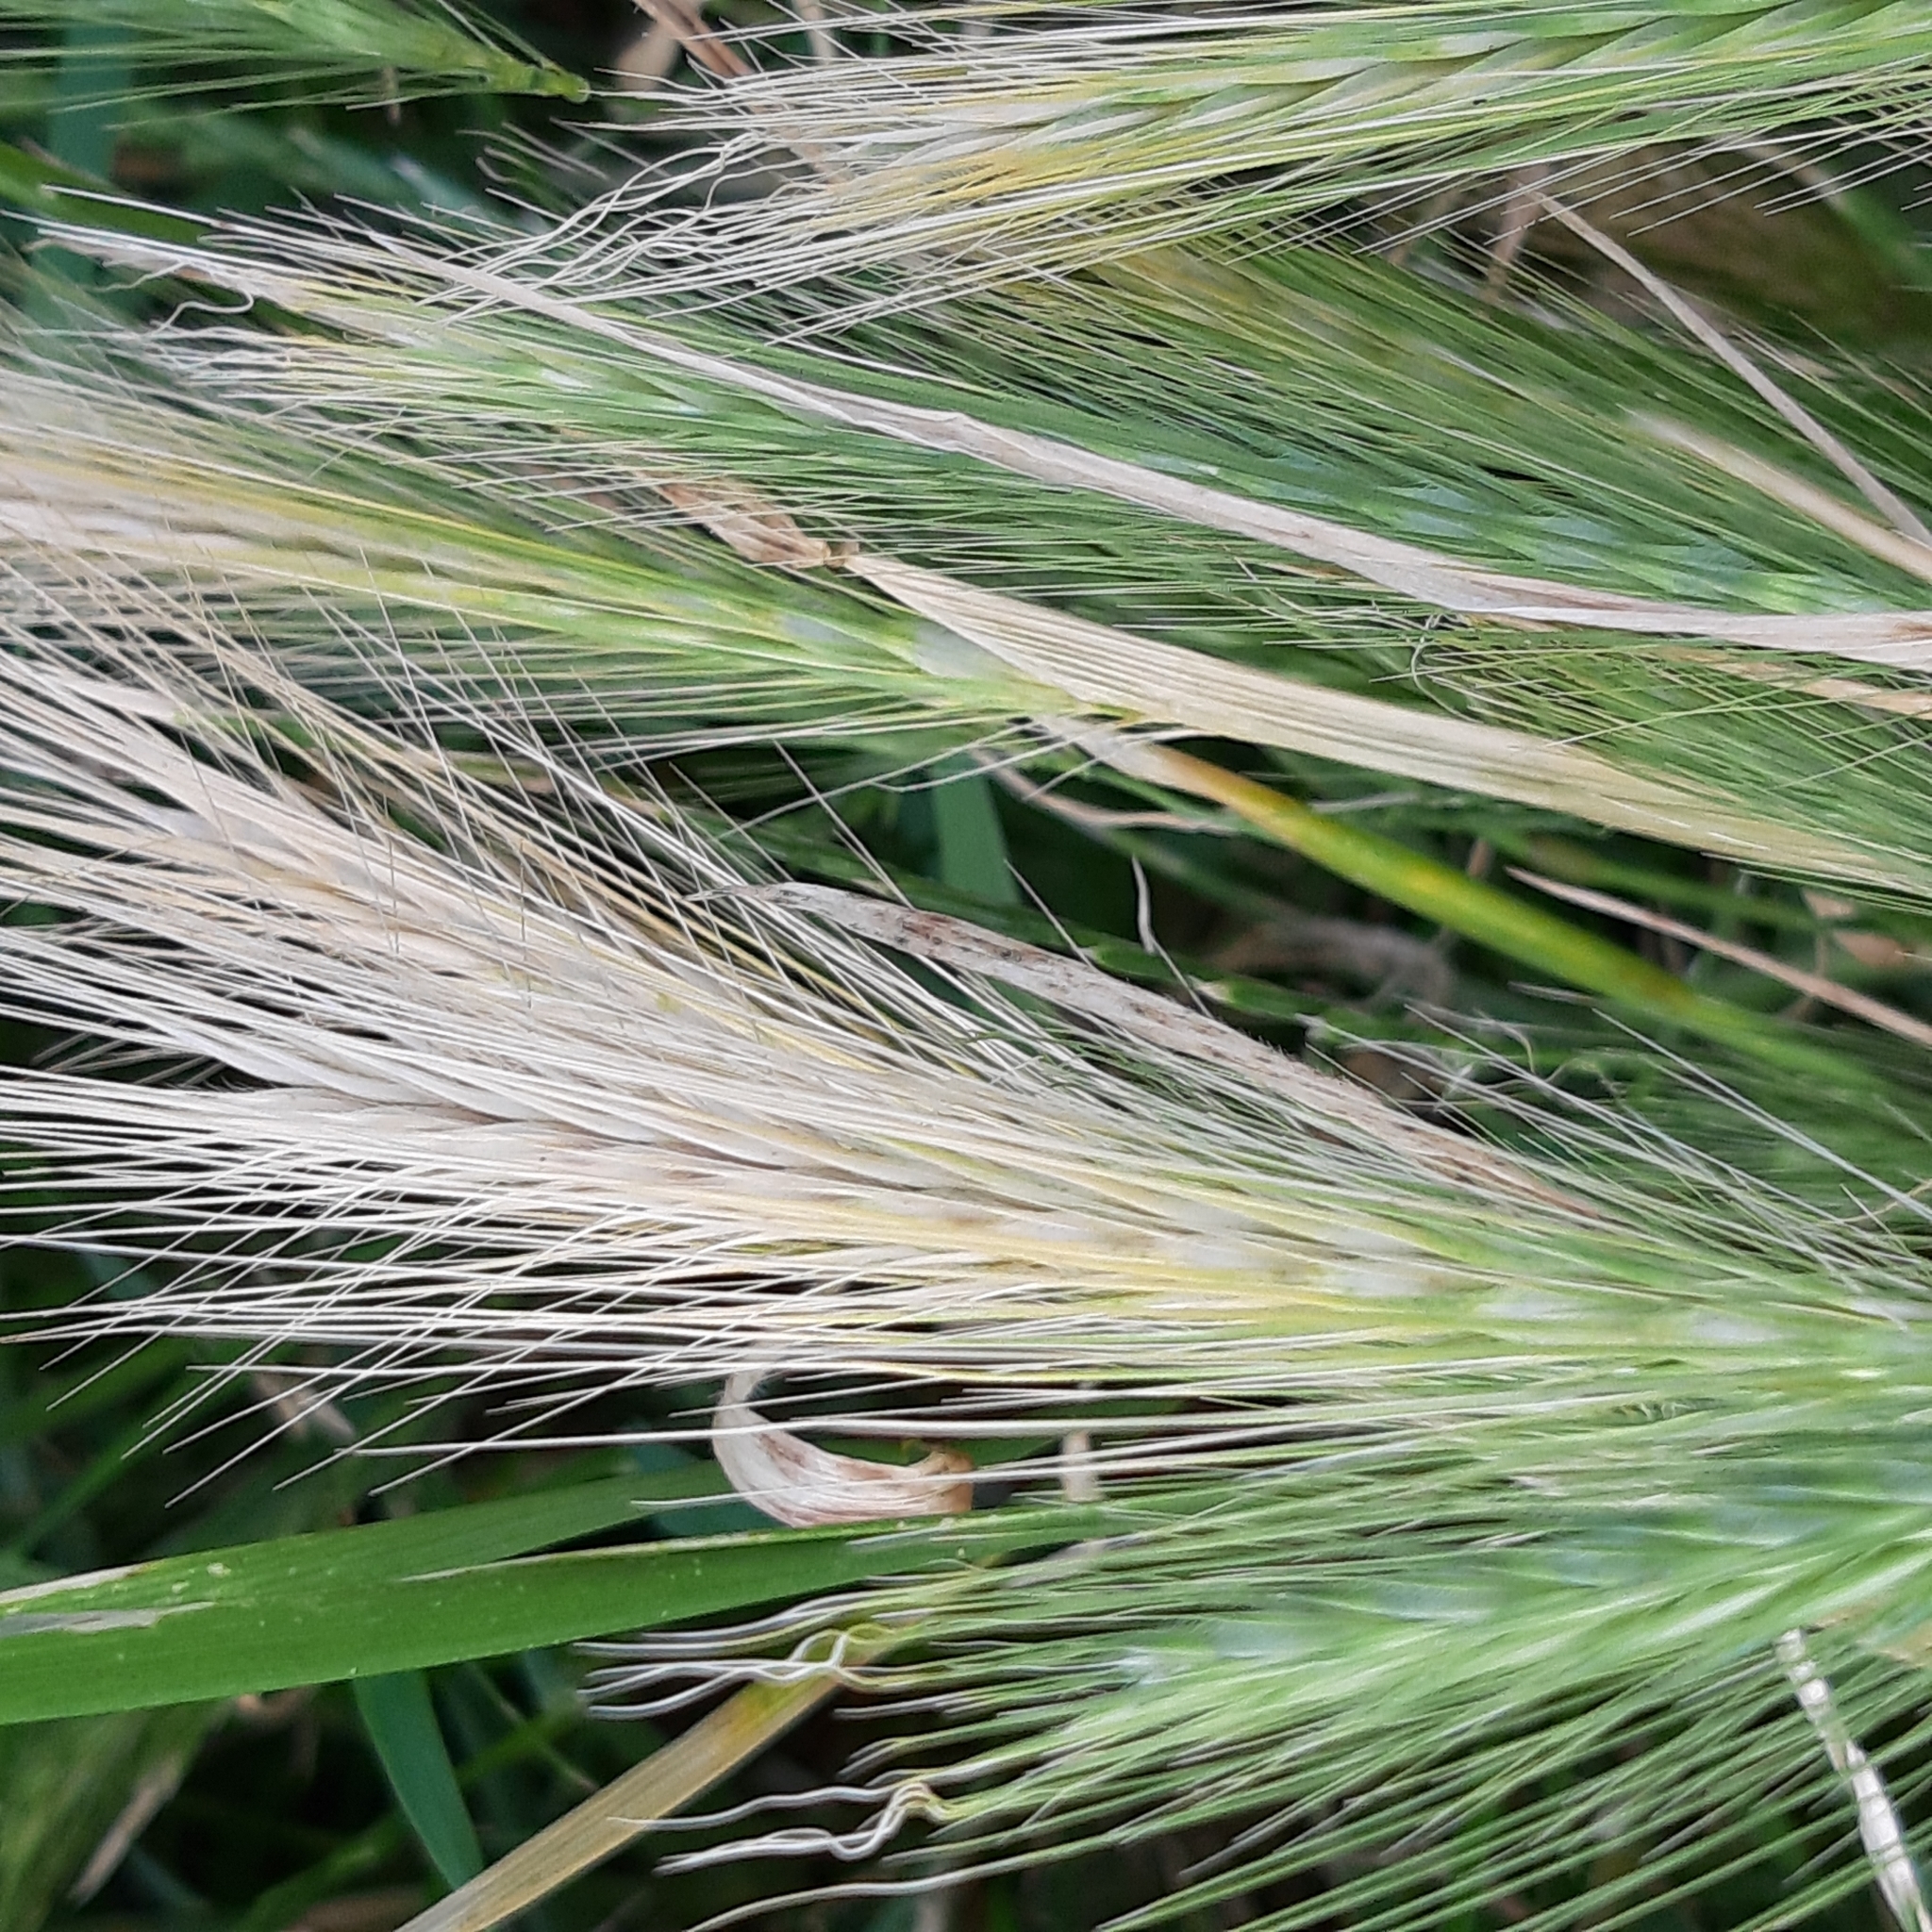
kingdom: Plantae
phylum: Tracheophyta
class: Liliopsida
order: Poales
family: Poaceae
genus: Hordeum
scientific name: Hordeum murinum
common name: Wall barley
